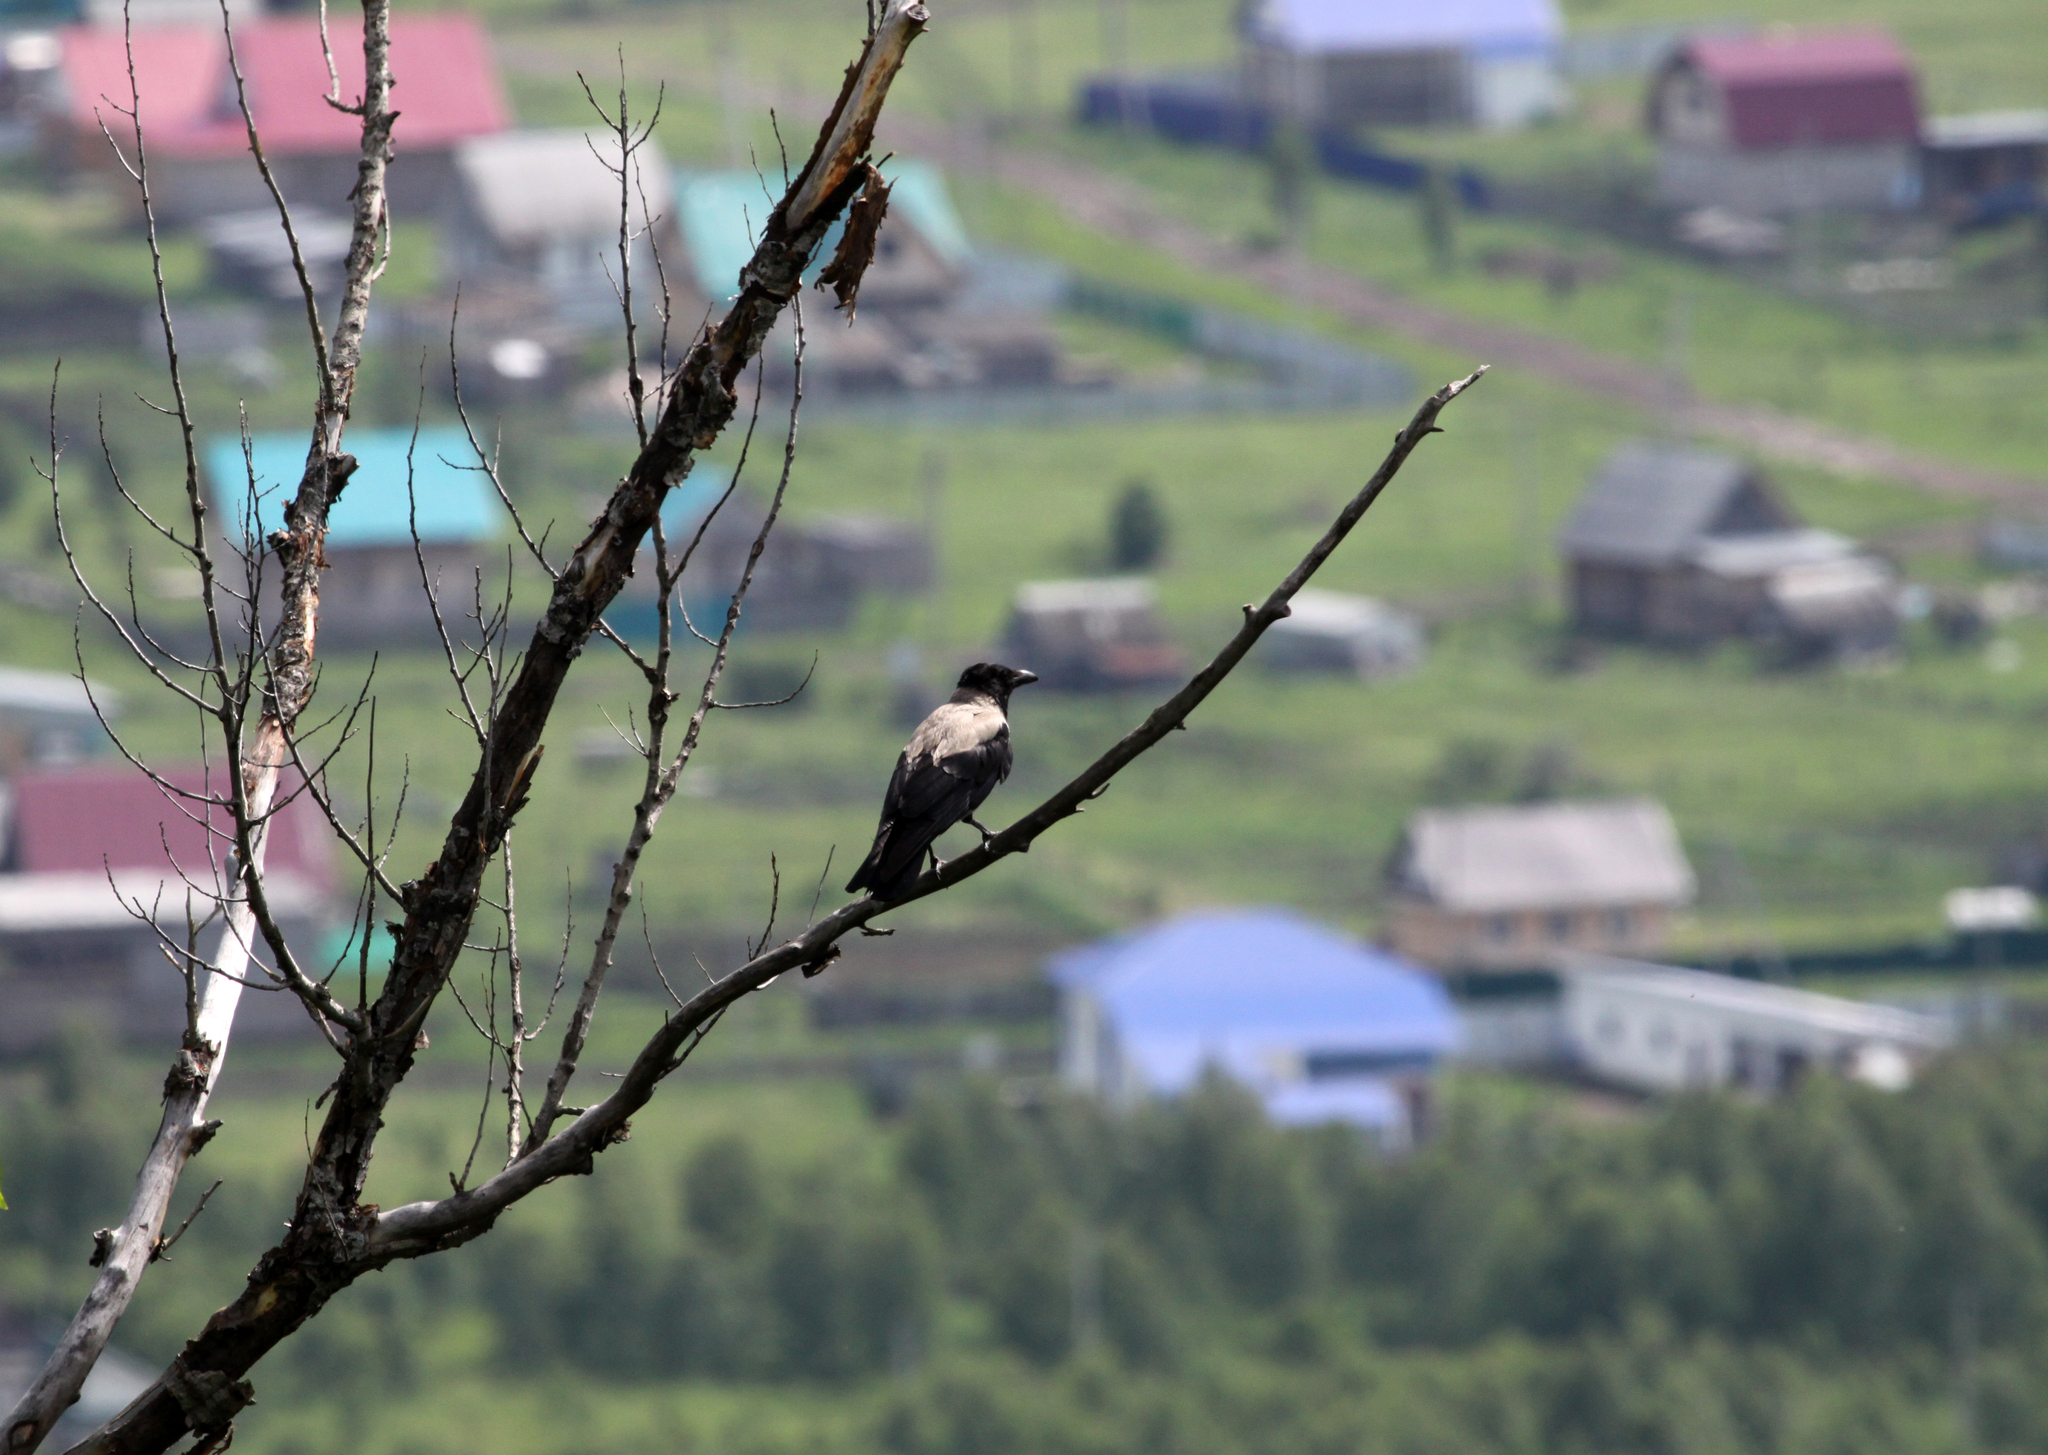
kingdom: Animalia
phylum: Chordata
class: Aves
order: Passeriformes
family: Corvidae
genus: Corvus
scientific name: Corvus cornix
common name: Hooded crow
